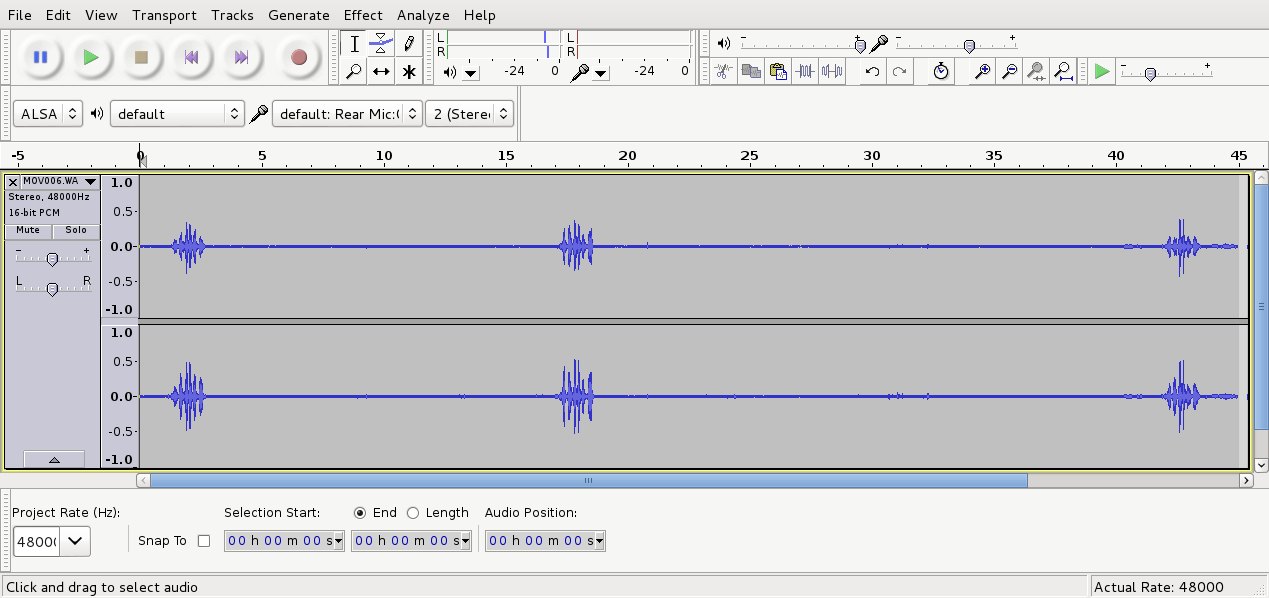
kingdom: Animalia
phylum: Chordata
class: Aves
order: Passeriformes
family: Meliphagidae
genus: Anthornis
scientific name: Anthornis melanura
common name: New zealand bellbird
